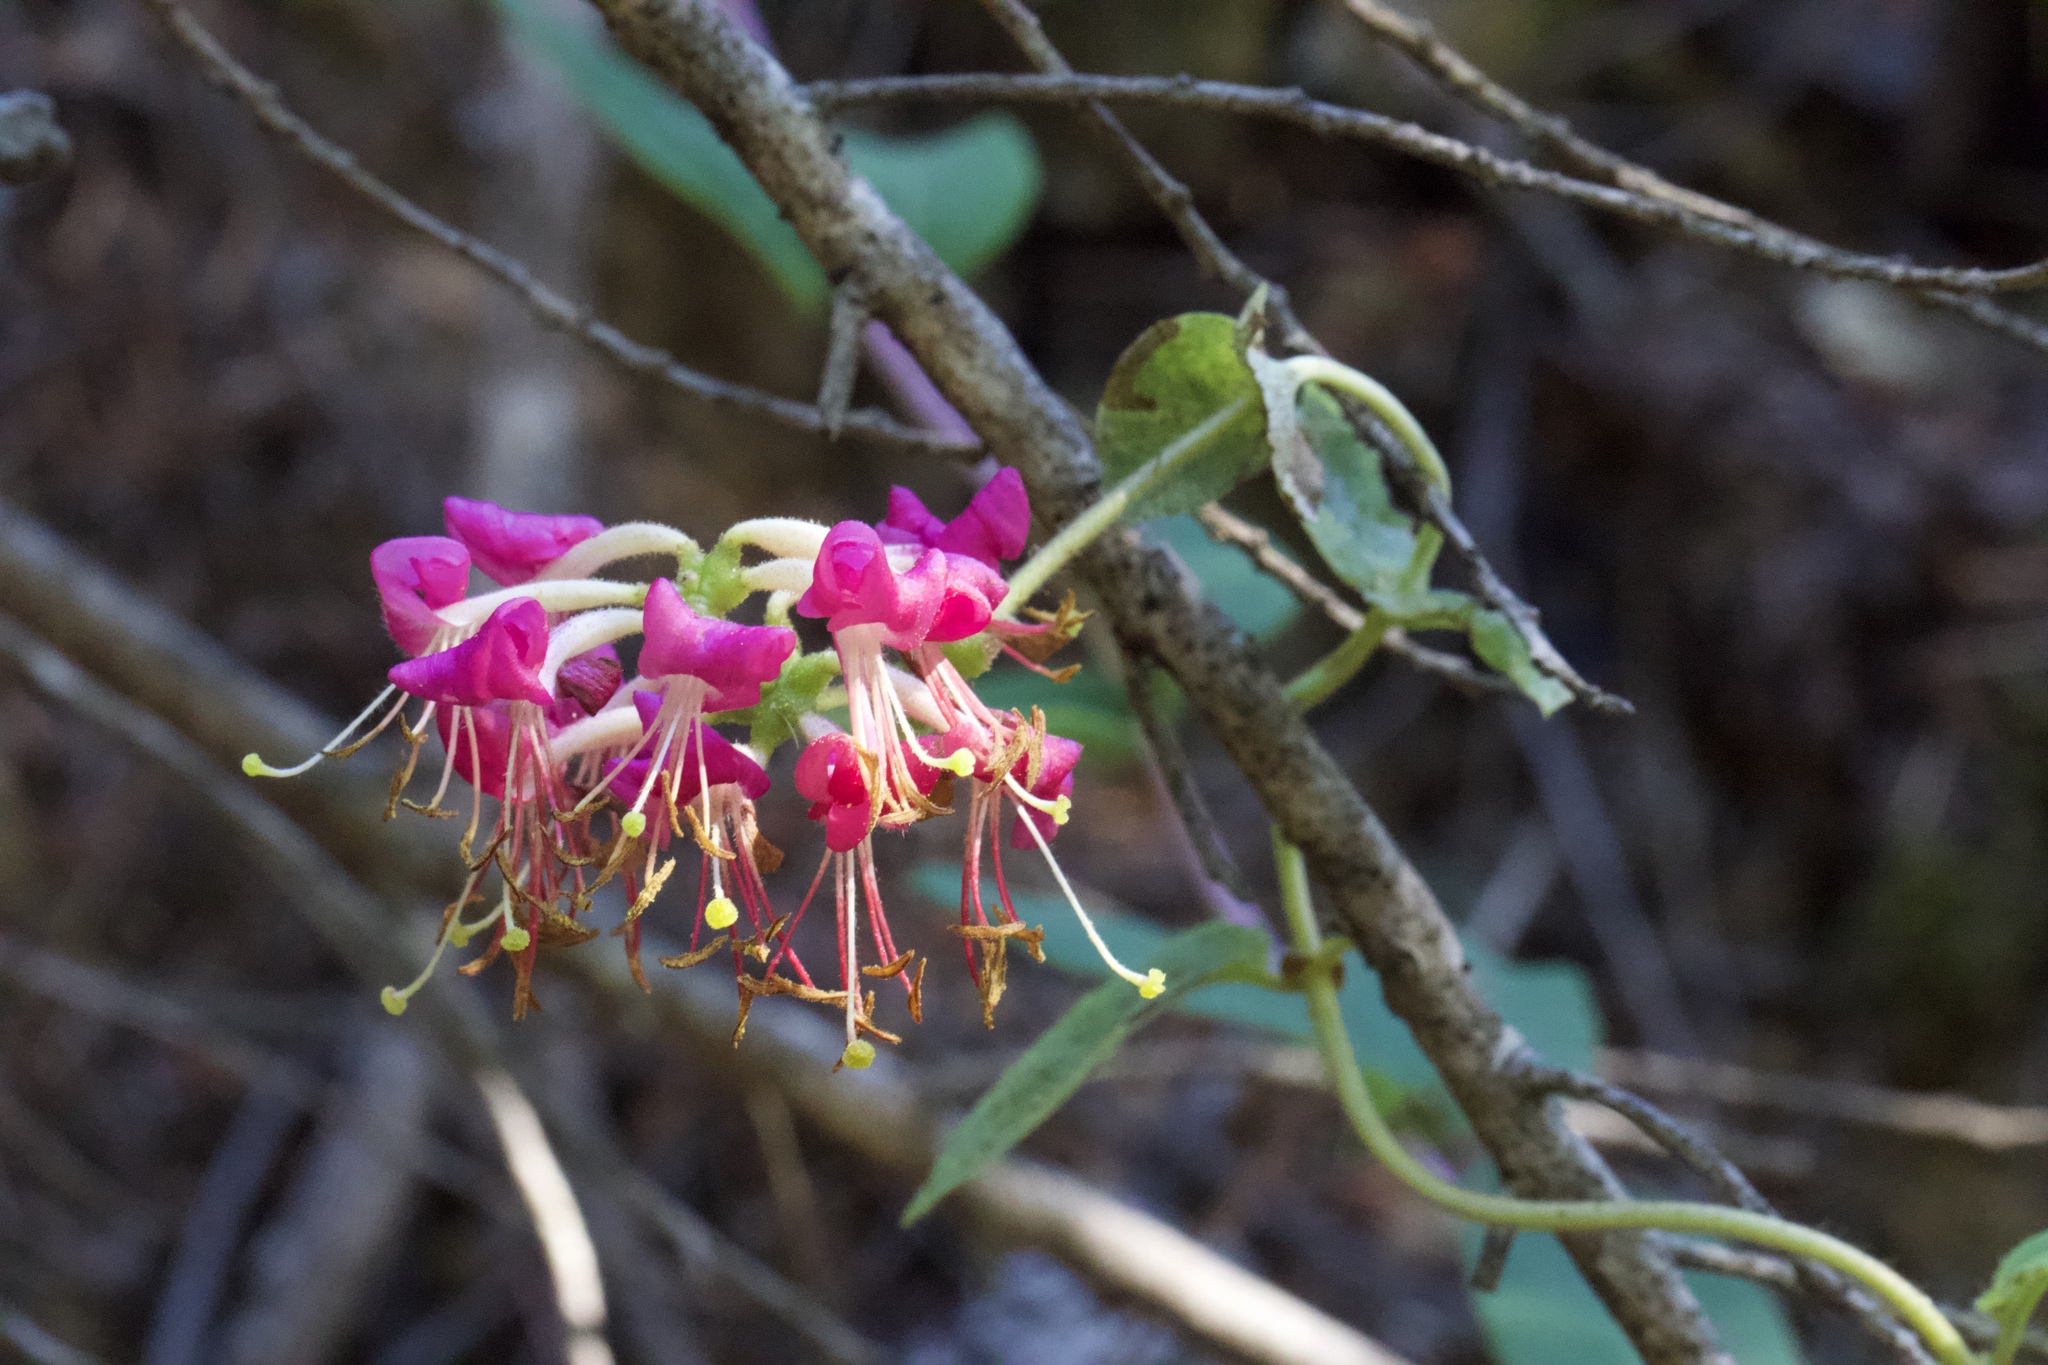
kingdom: Plantae
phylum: Tracheophyta
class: Magnoliopsida
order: Dipsacales
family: Caprifoliaceae
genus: Lonicera
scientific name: Lonicera hispidula
